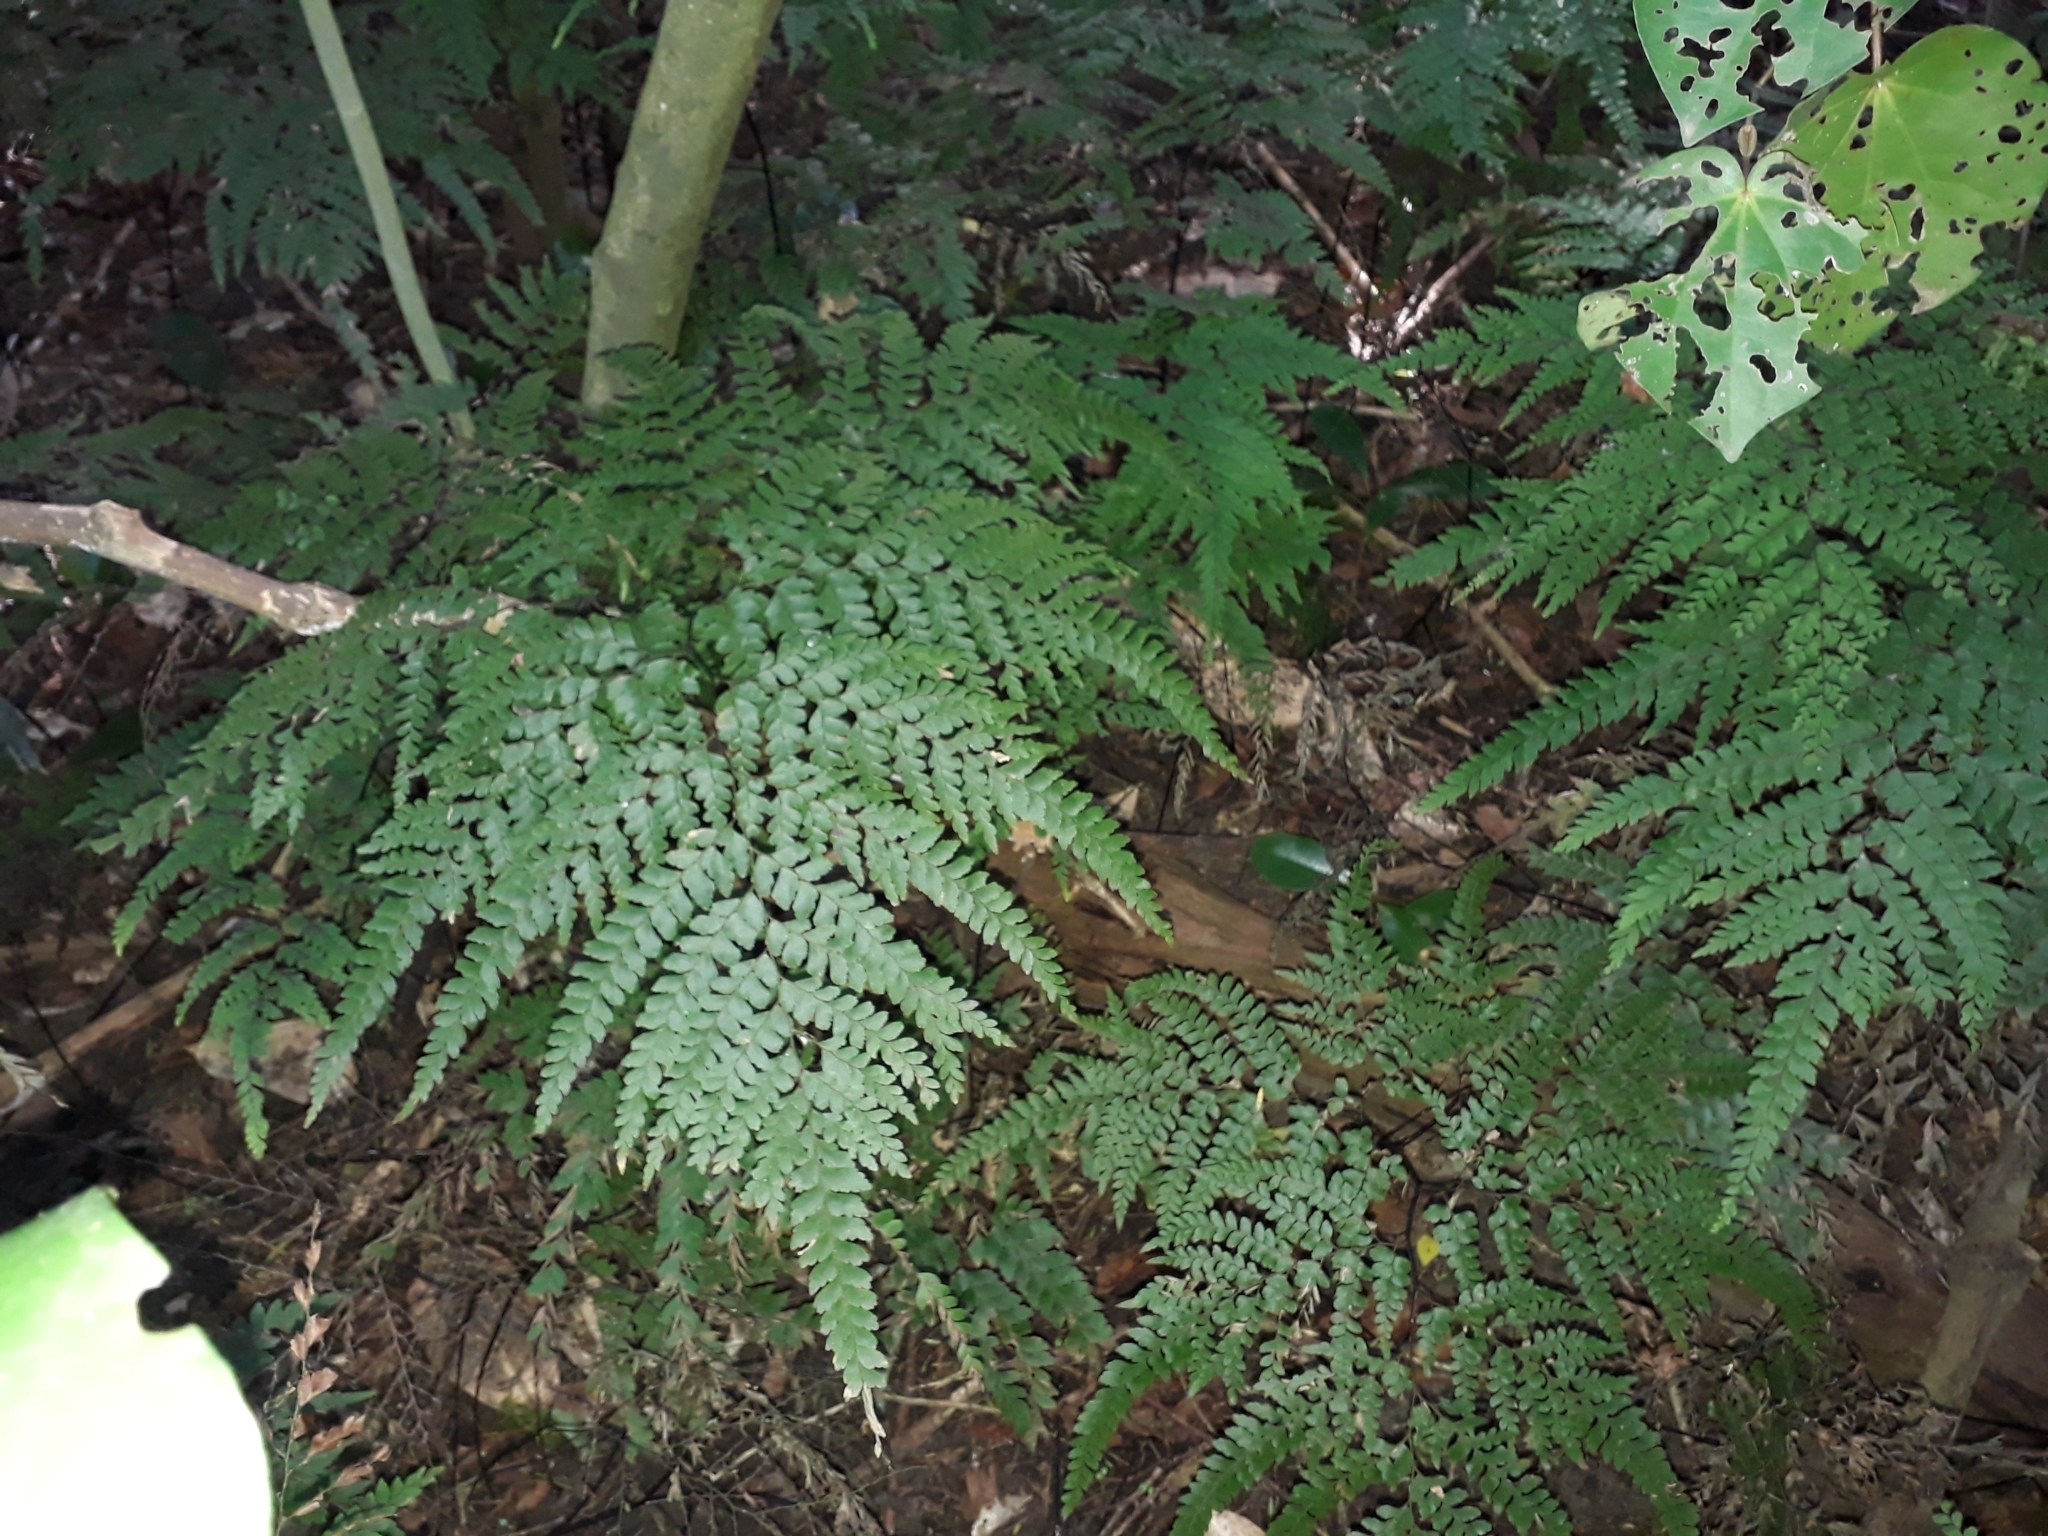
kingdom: Plantae
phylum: Tracheophyta
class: Polypodiopsida
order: Polypodiales
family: Pteridaceae
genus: Adiantum
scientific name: Adiantum formosum
